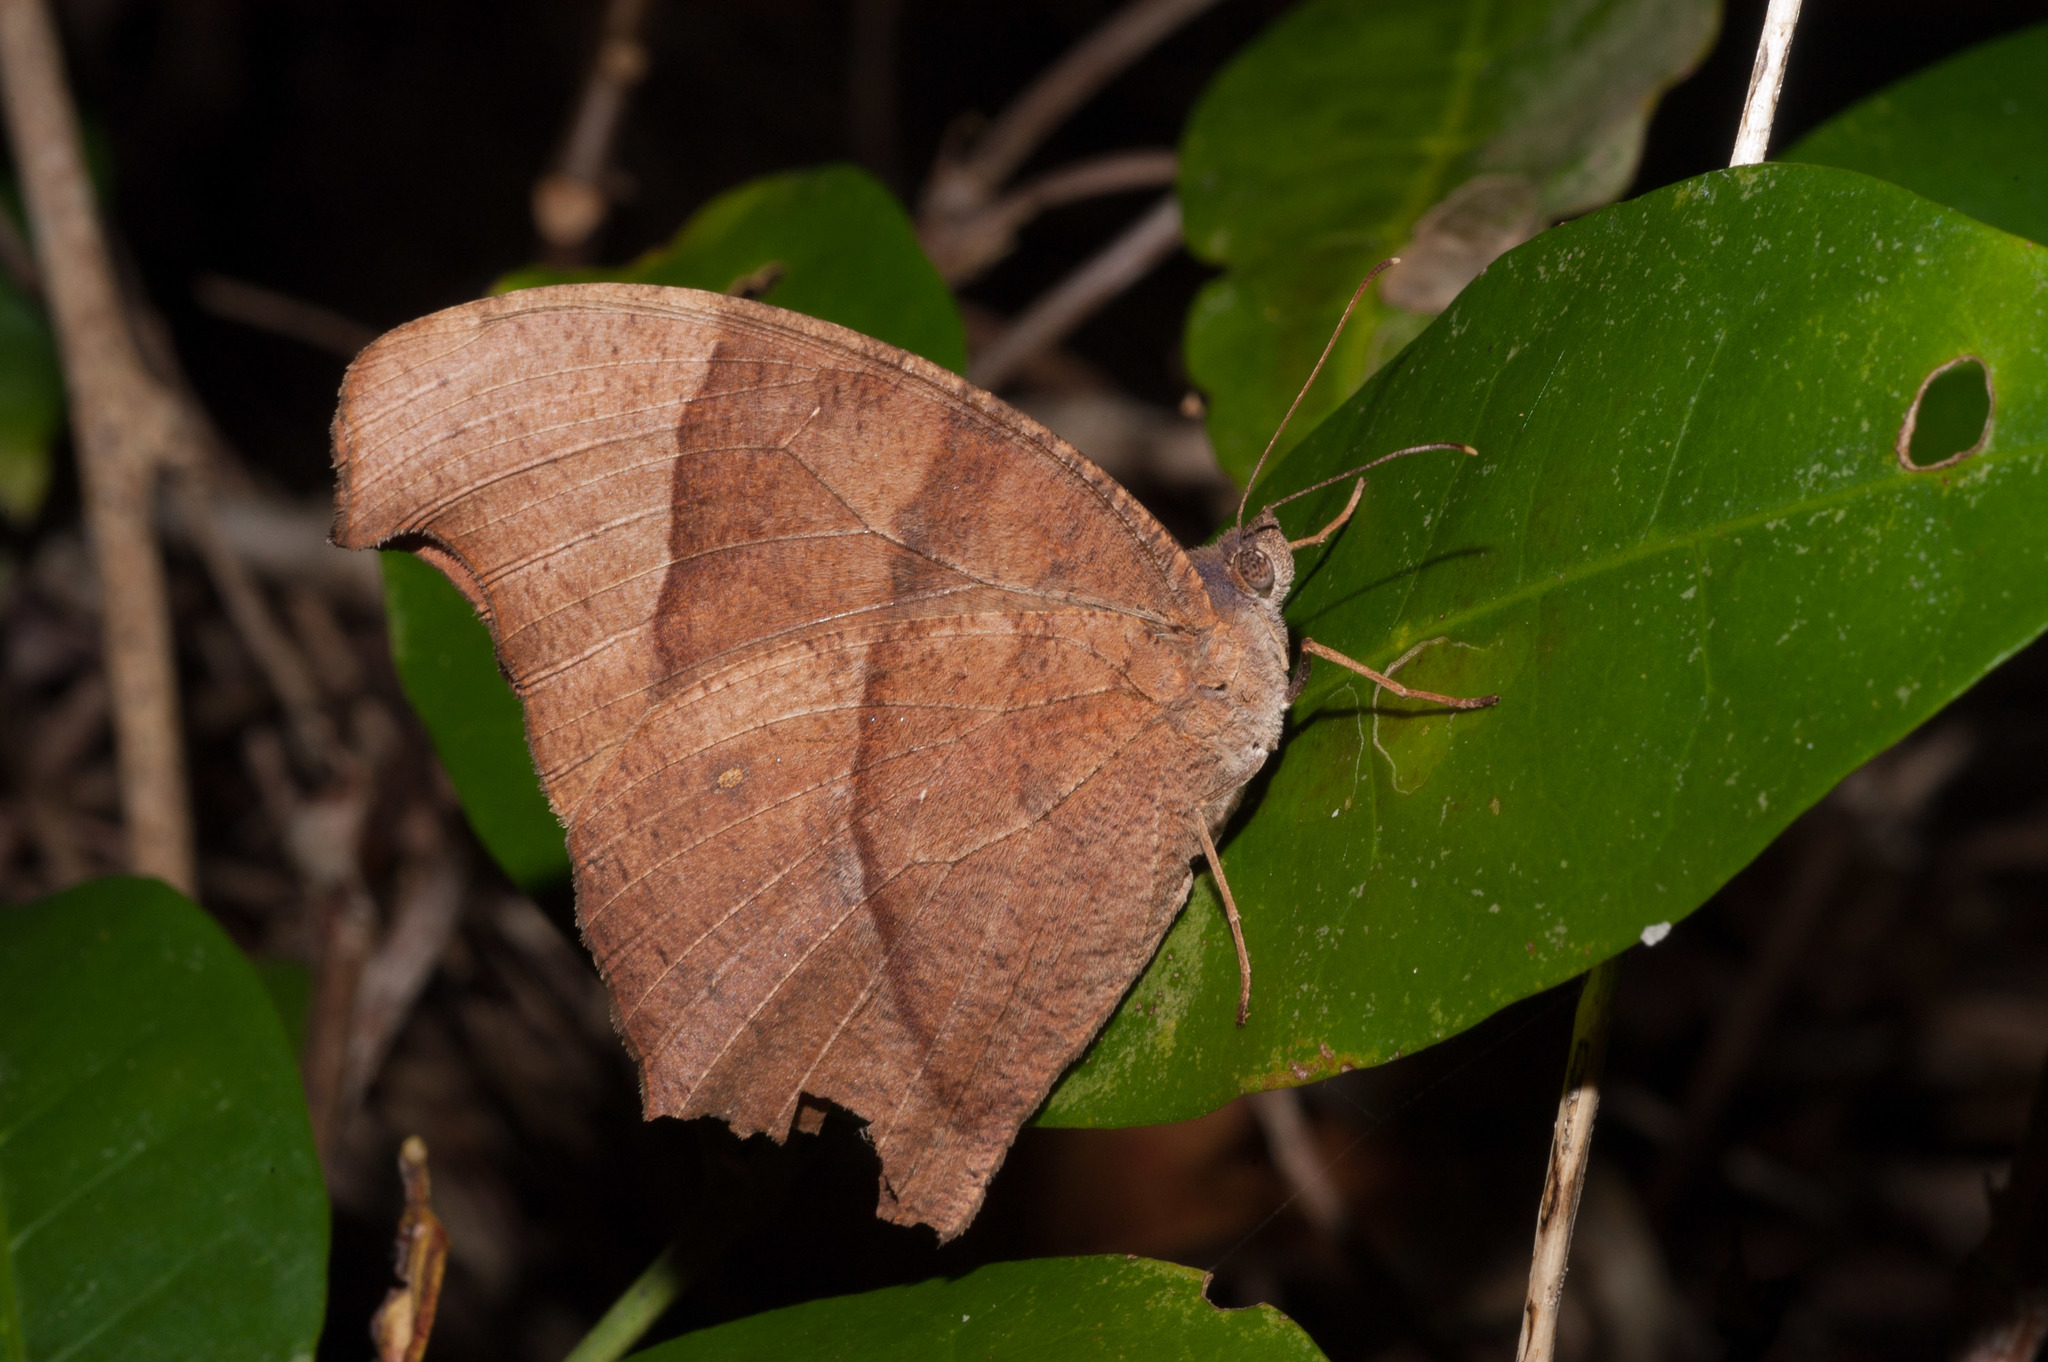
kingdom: Animalia
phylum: Arthropoda
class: Insecta
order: Lepidoptera
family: Nymphalidae
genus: Melanitis
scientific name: Melanitis leda
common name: Twilight brown
